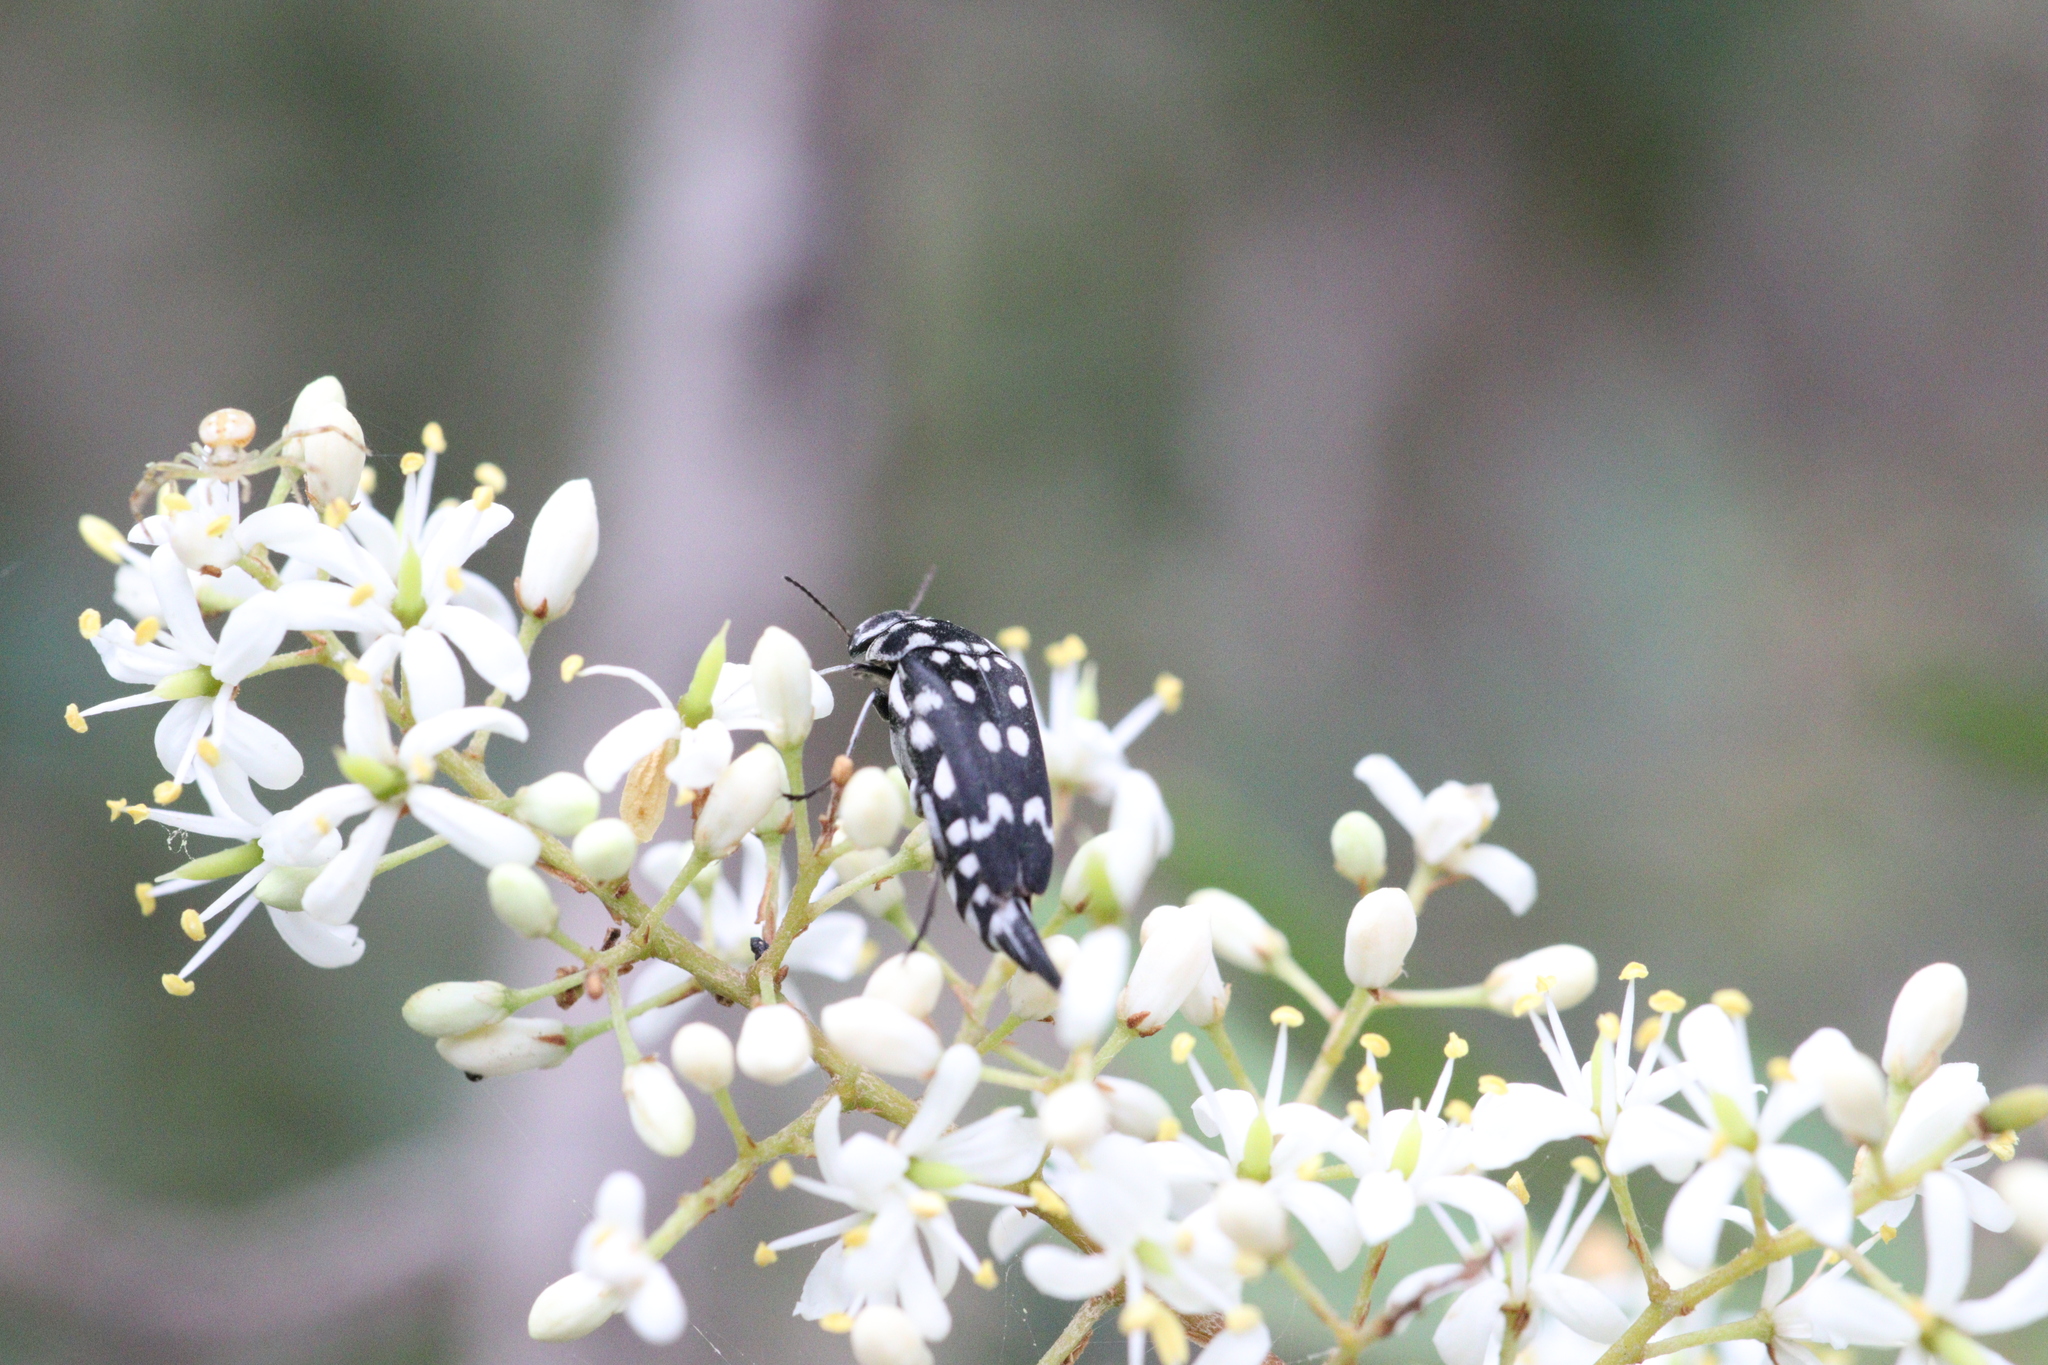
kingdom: Plantae
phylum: Tracheophyta
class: Magnoliopsida
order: Apiales
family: Pittosporaceae
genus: Bursaria
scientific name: Bursaria spinosa
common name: Australian blackthorn
